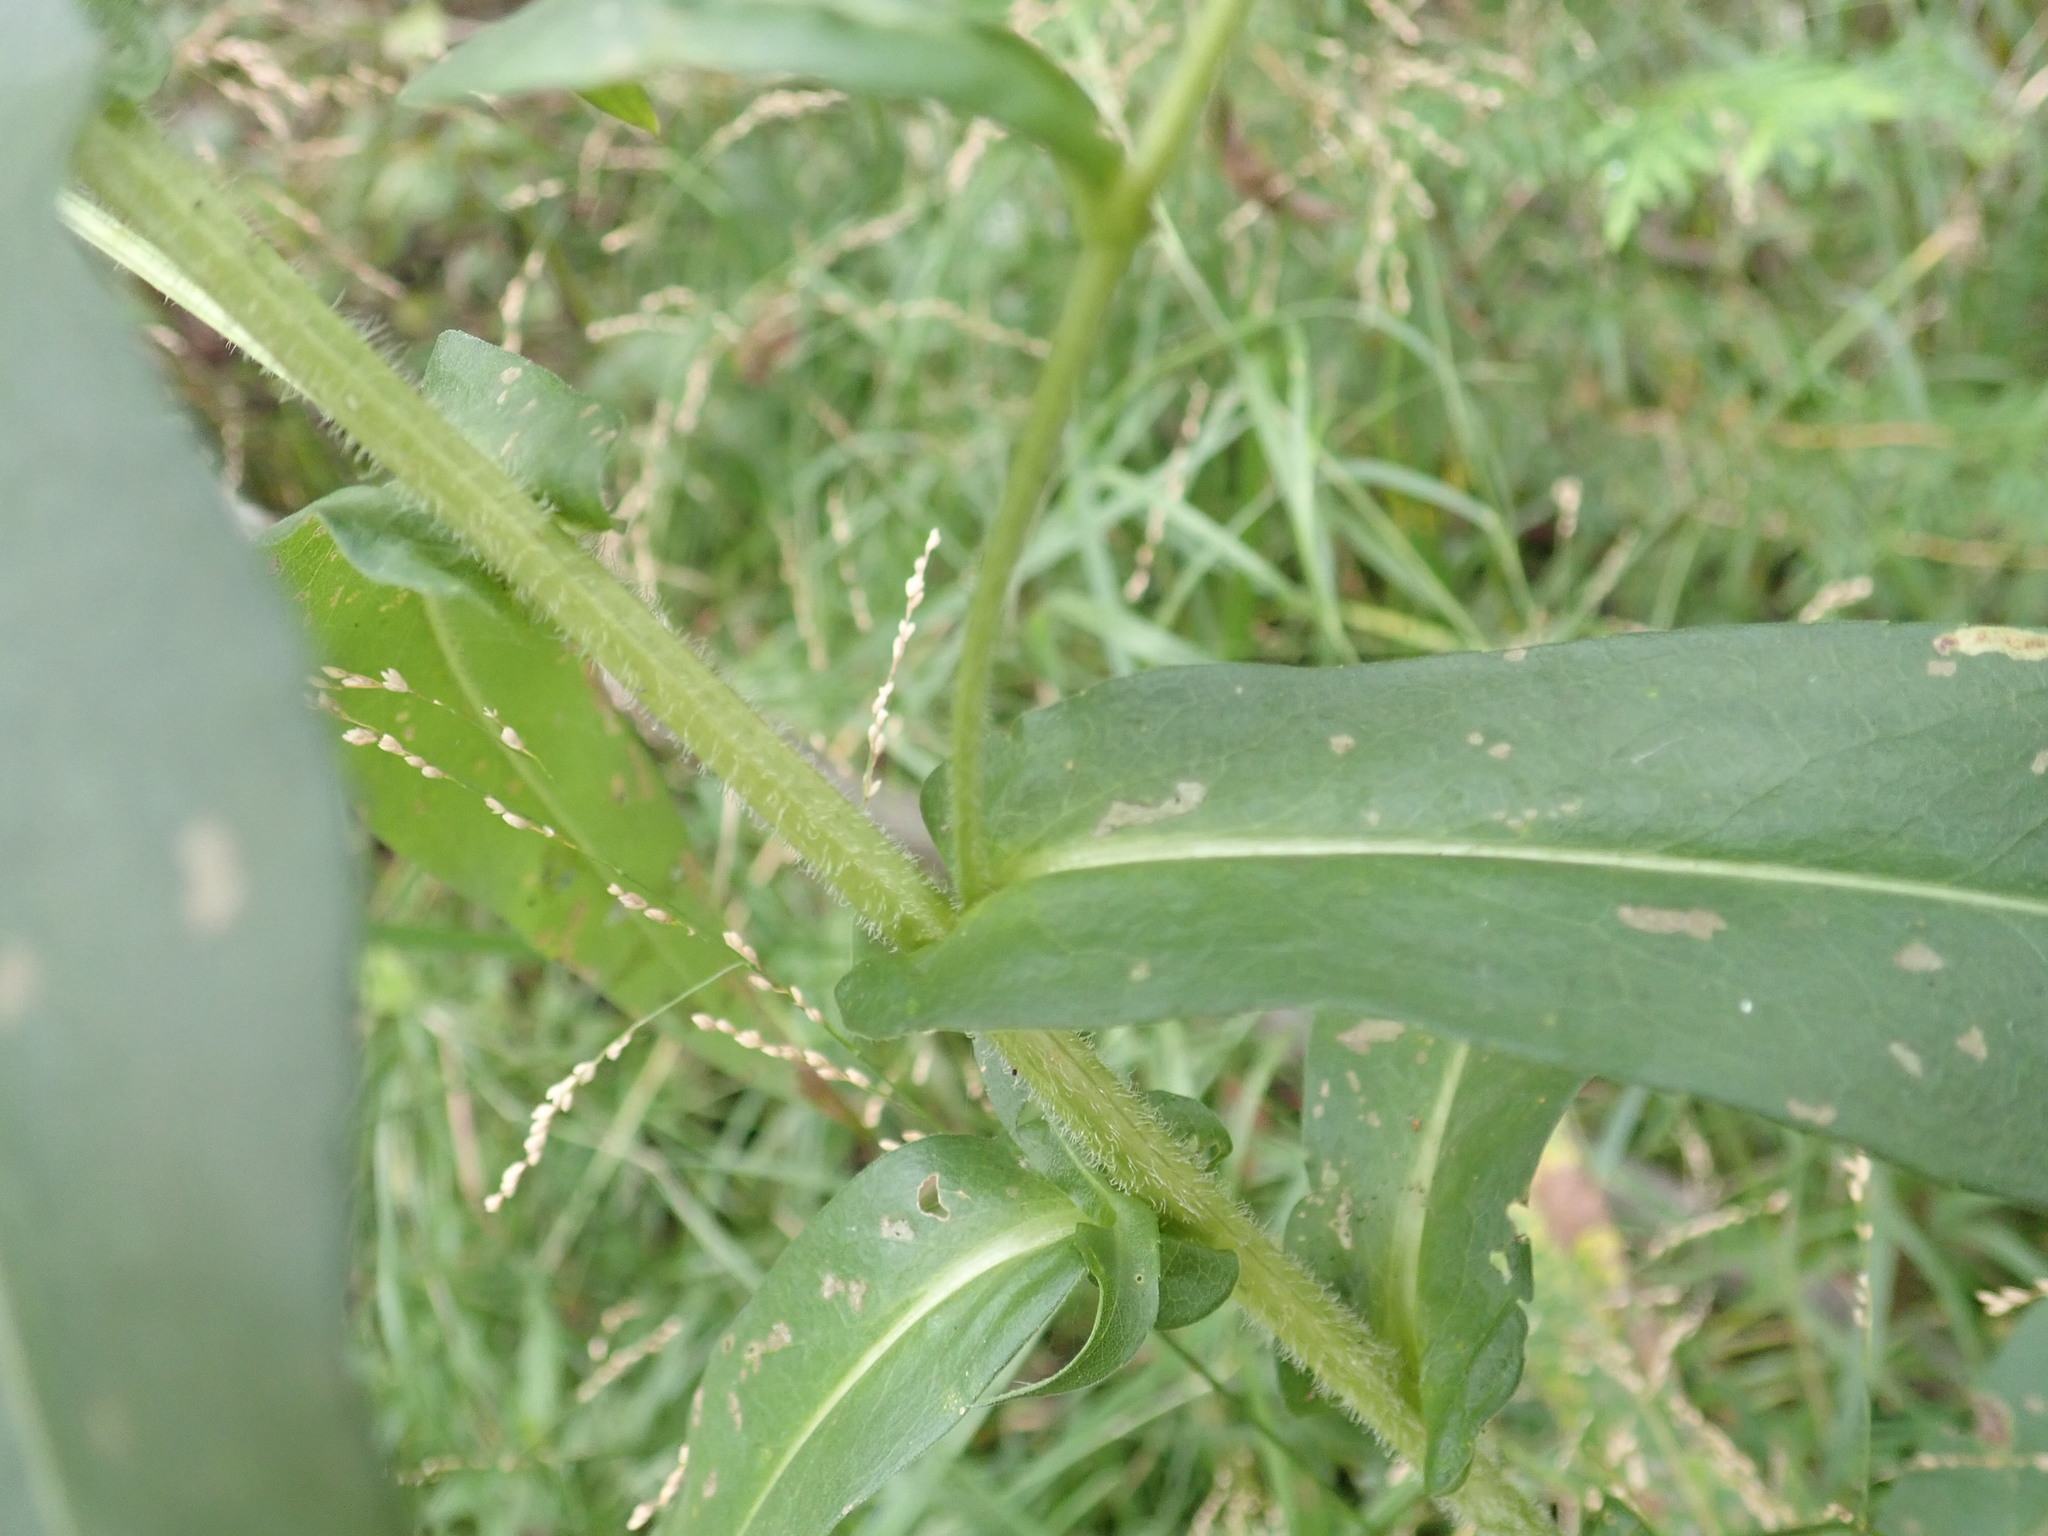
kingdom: Plantae
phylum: Tracheophyta
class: Magnoliopsida
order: Asterales
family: Asteraceae
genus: Symphyotrichum
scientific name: Symphyotrichum puniceum
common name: Bog aster
